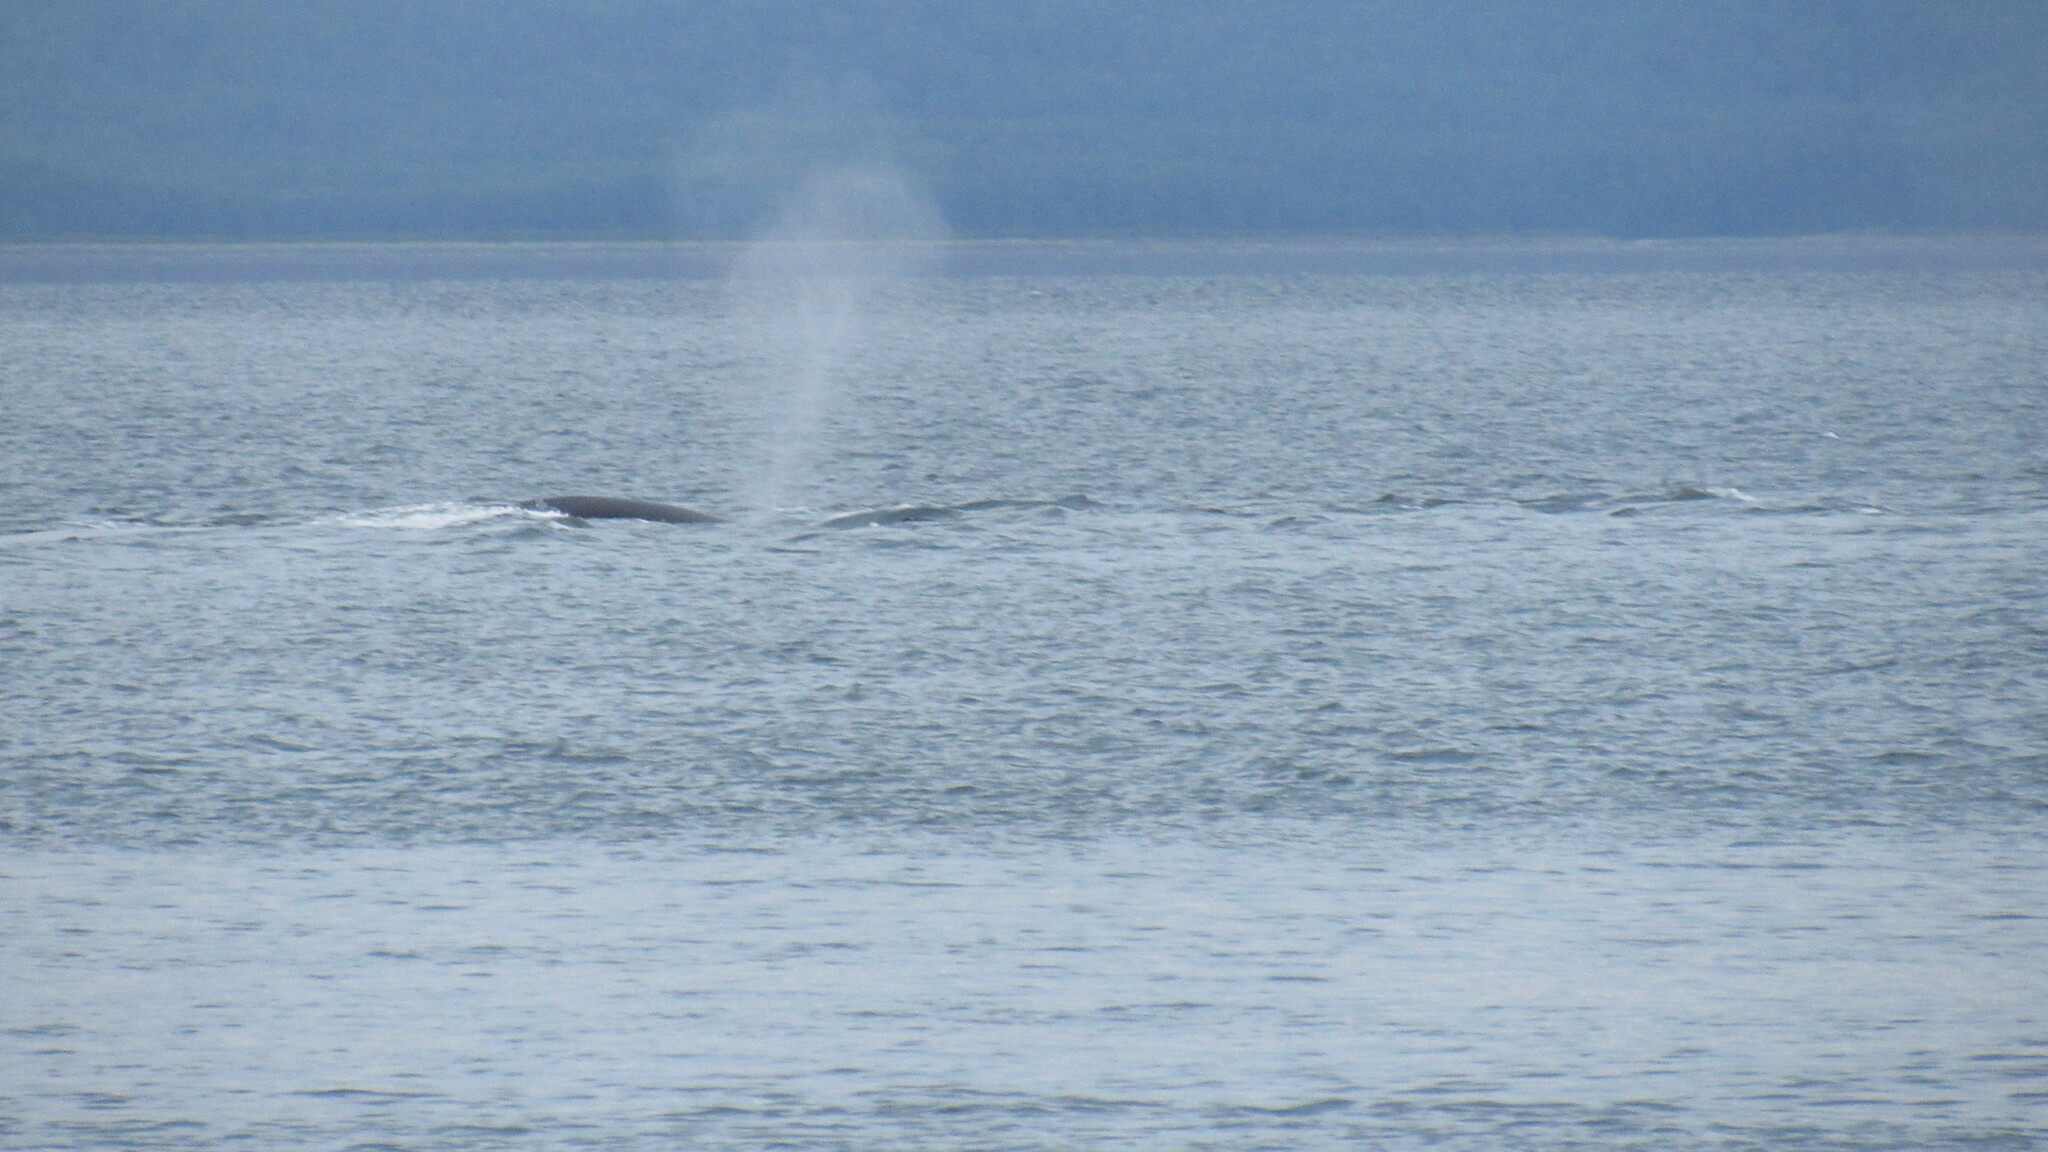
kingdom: Animalia
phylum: Chordata
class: Mammalia
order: Cetacea
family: Delphinidae
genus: Orcinus
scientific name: Orcinus orca
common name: Killer whale
